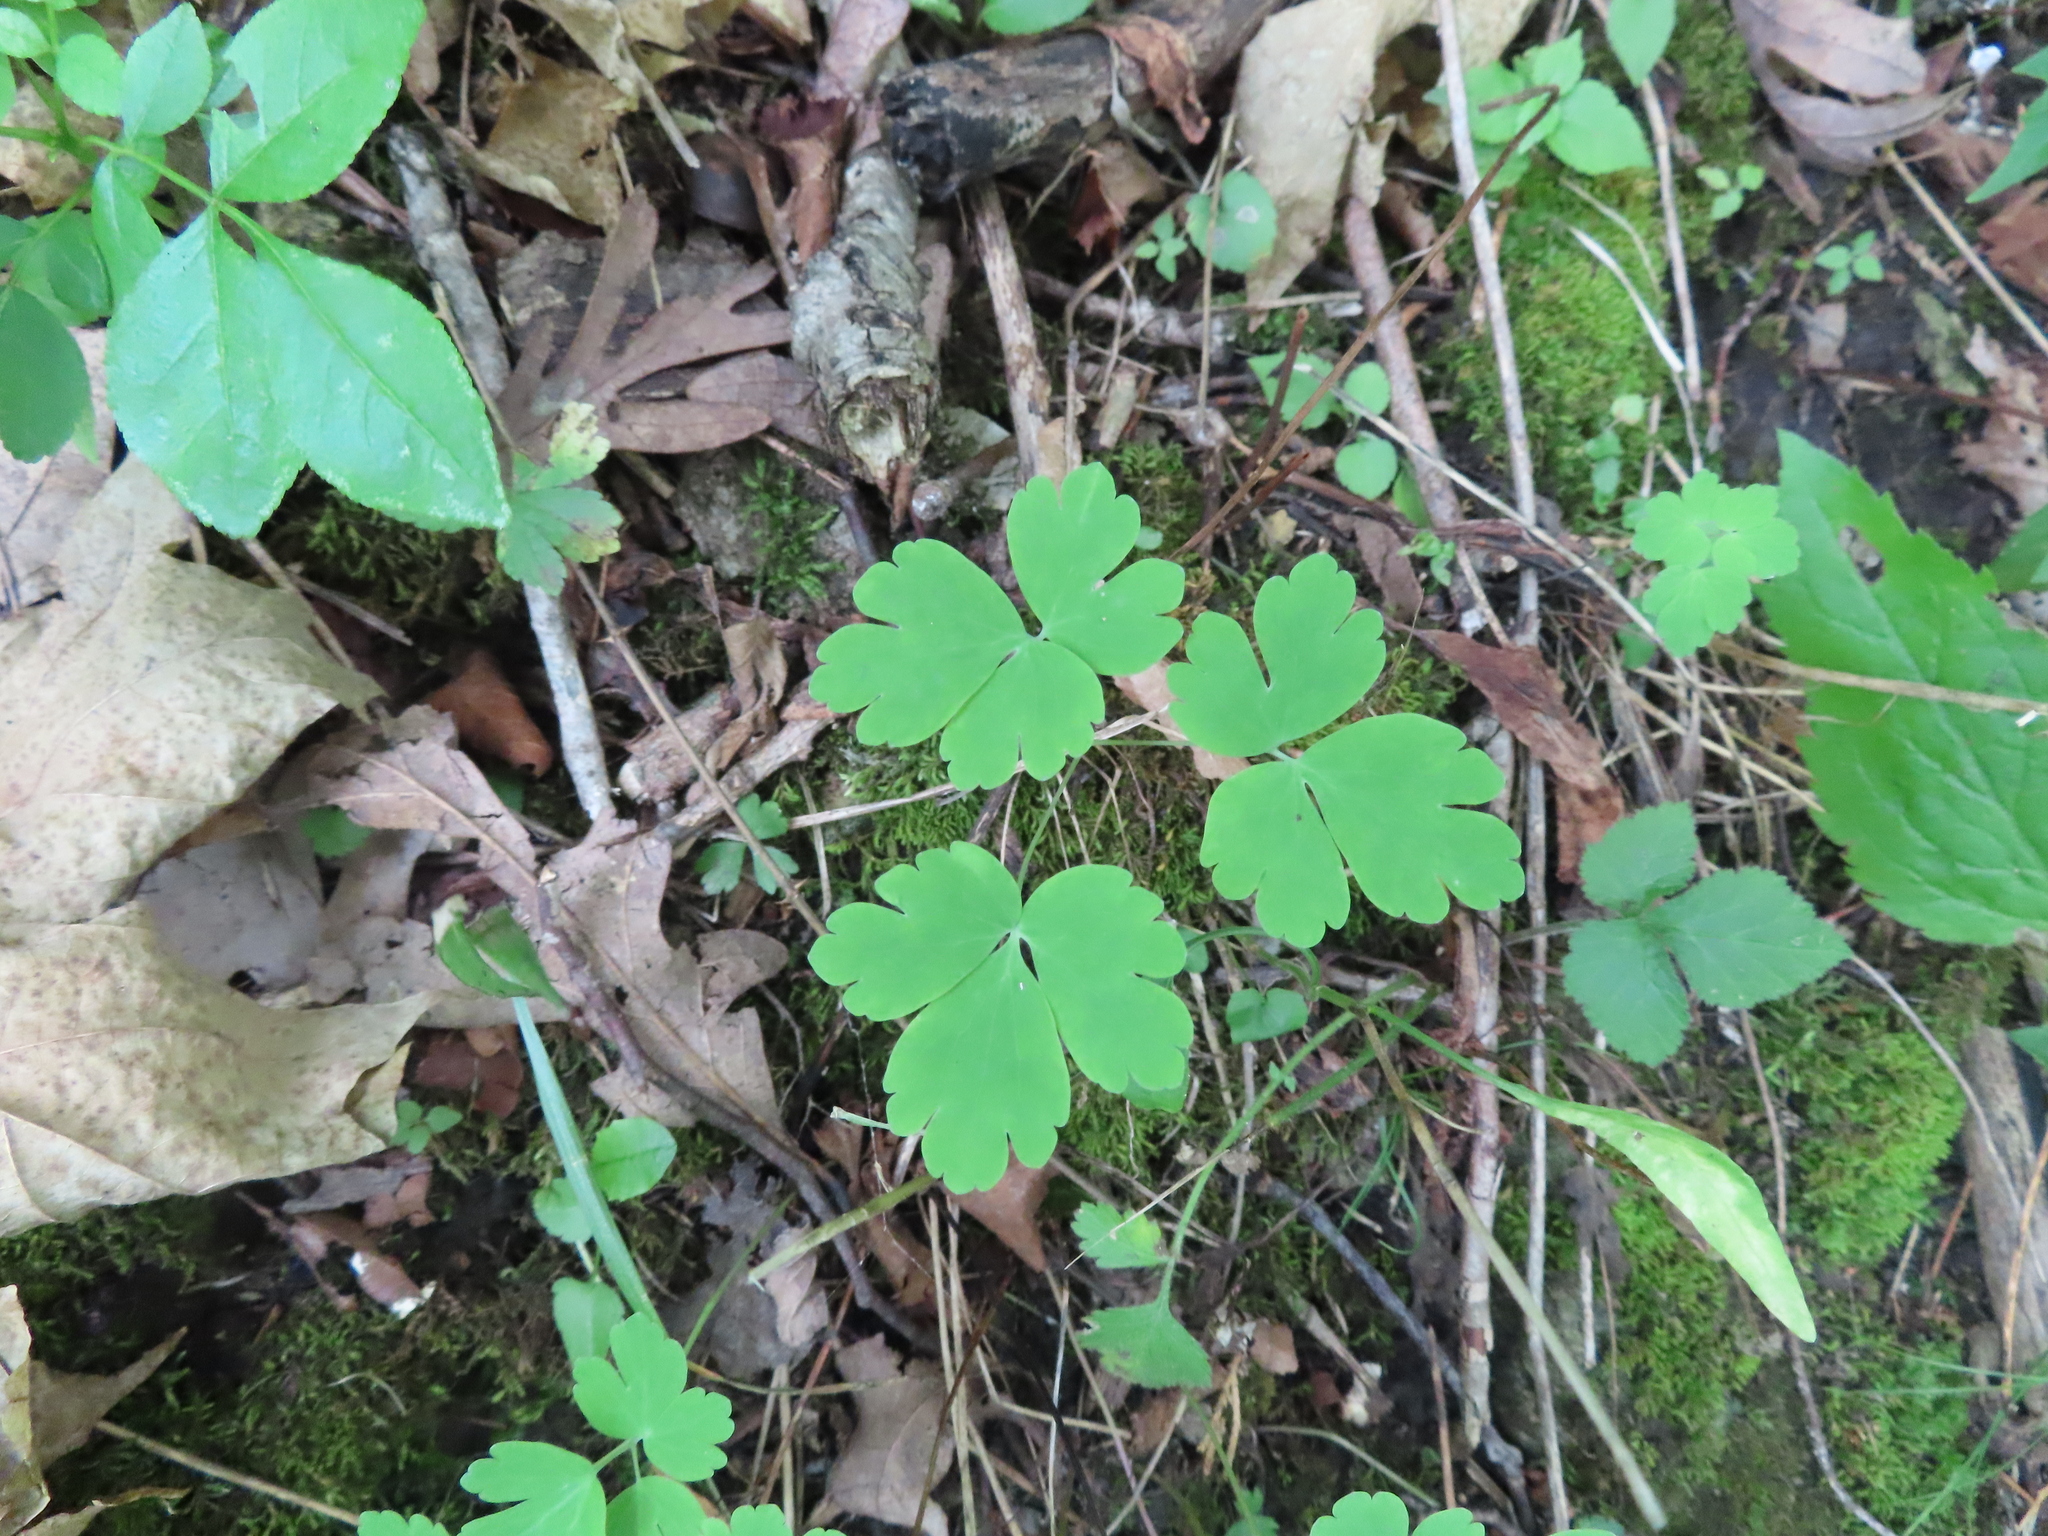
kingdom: Plantae
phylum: Tracheophyta
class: Magnoliopsida
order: Ranunculales
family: Ranunculaceae
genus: Aquilegia
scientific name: Aquilegia canadensis
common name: American columbine
